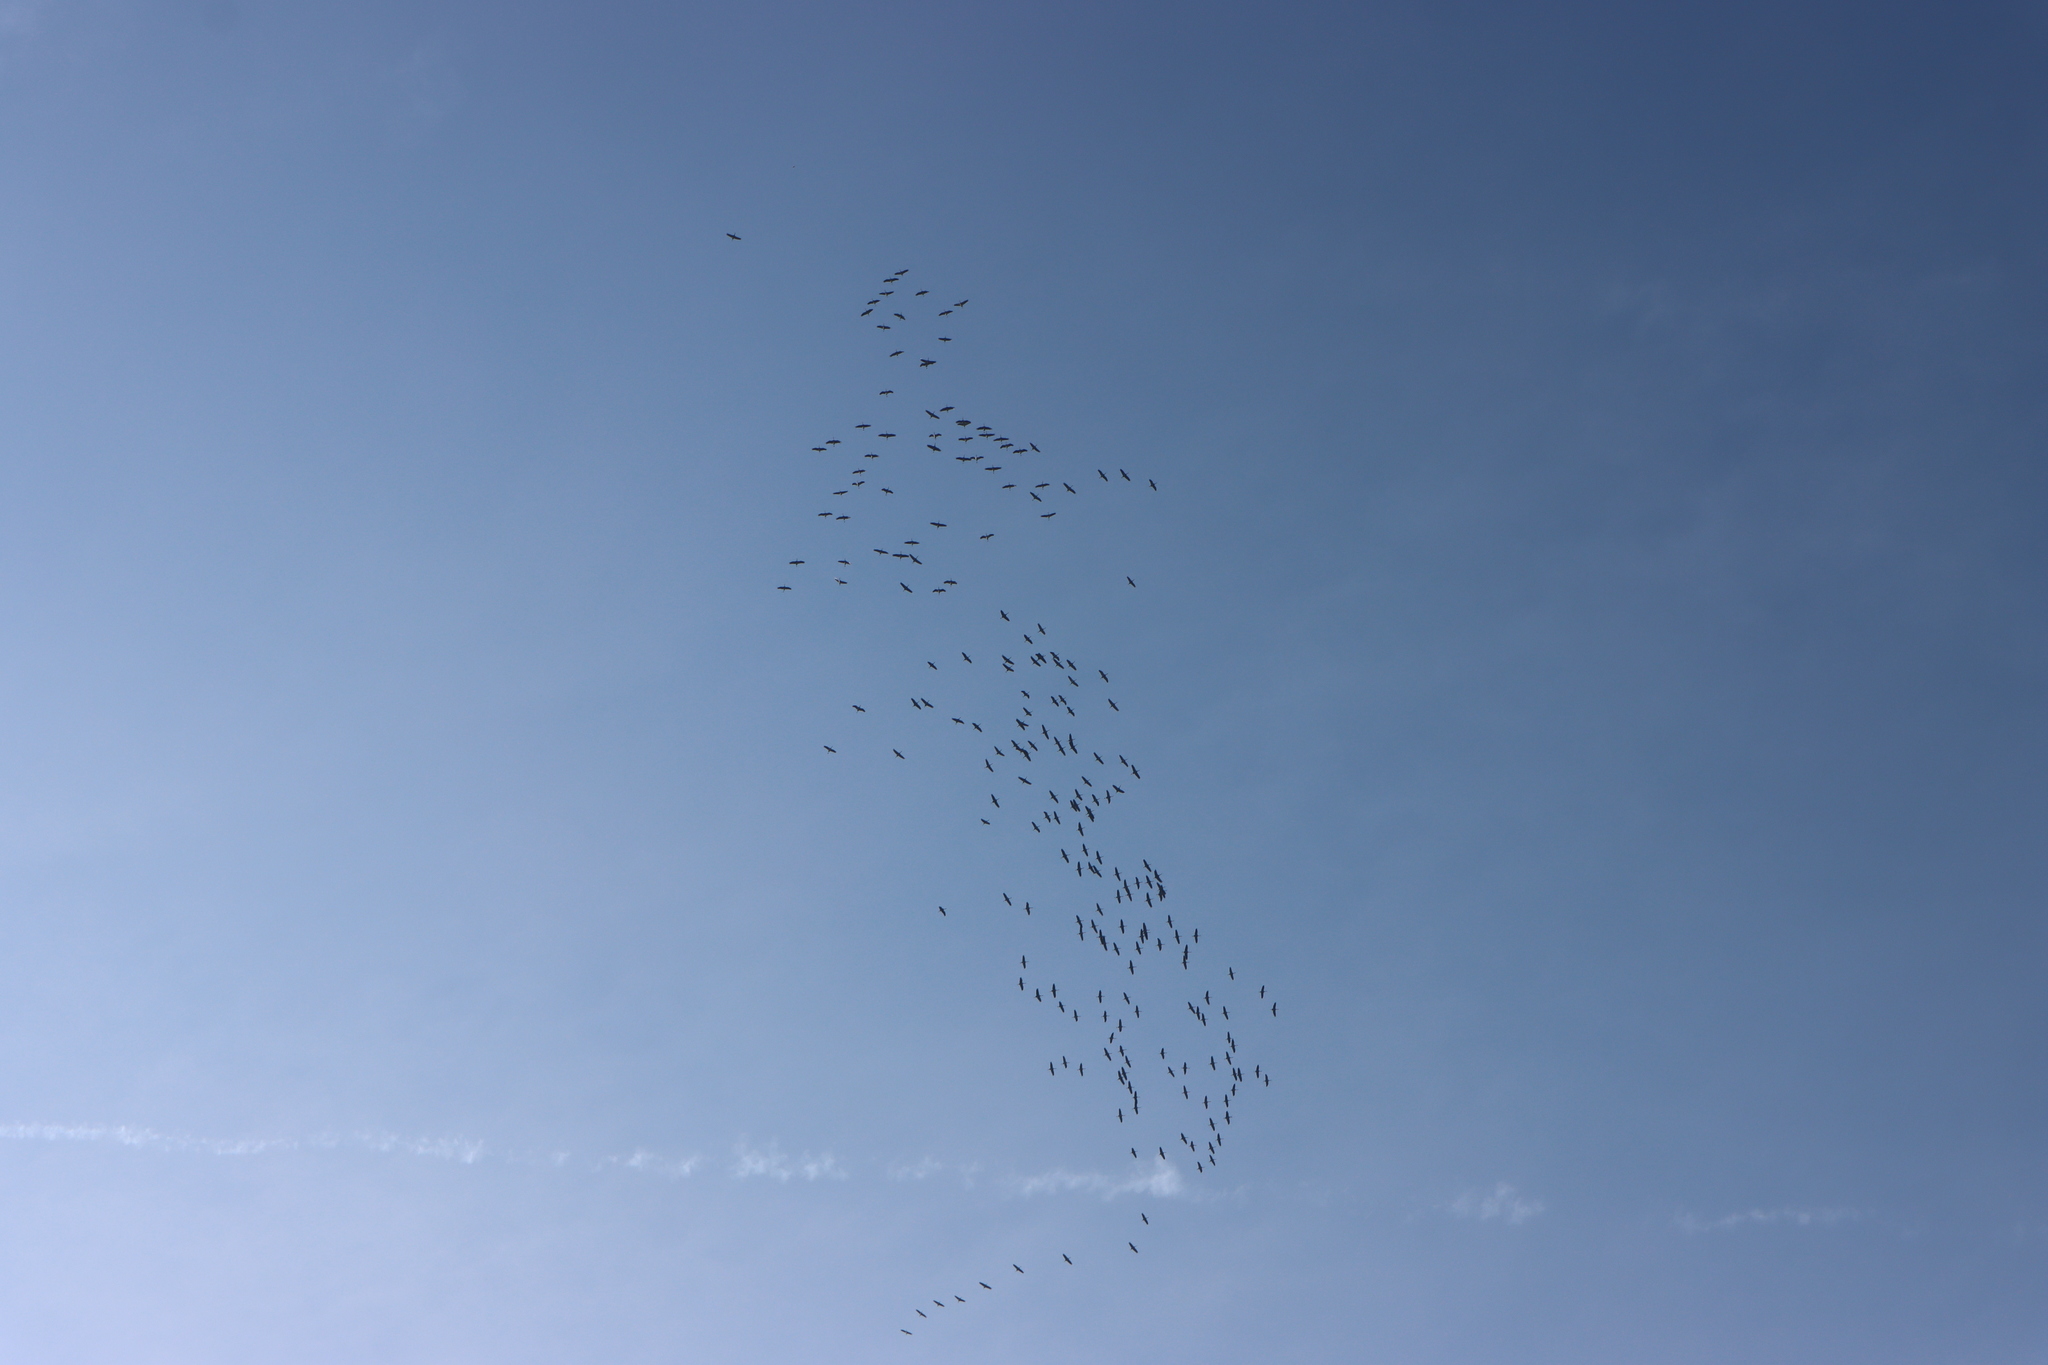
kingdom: Animalia
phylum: Chordata
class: Aves
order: Gruiformes
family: Gruidae
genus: Grus
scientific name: Grus grus
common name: Common crane
